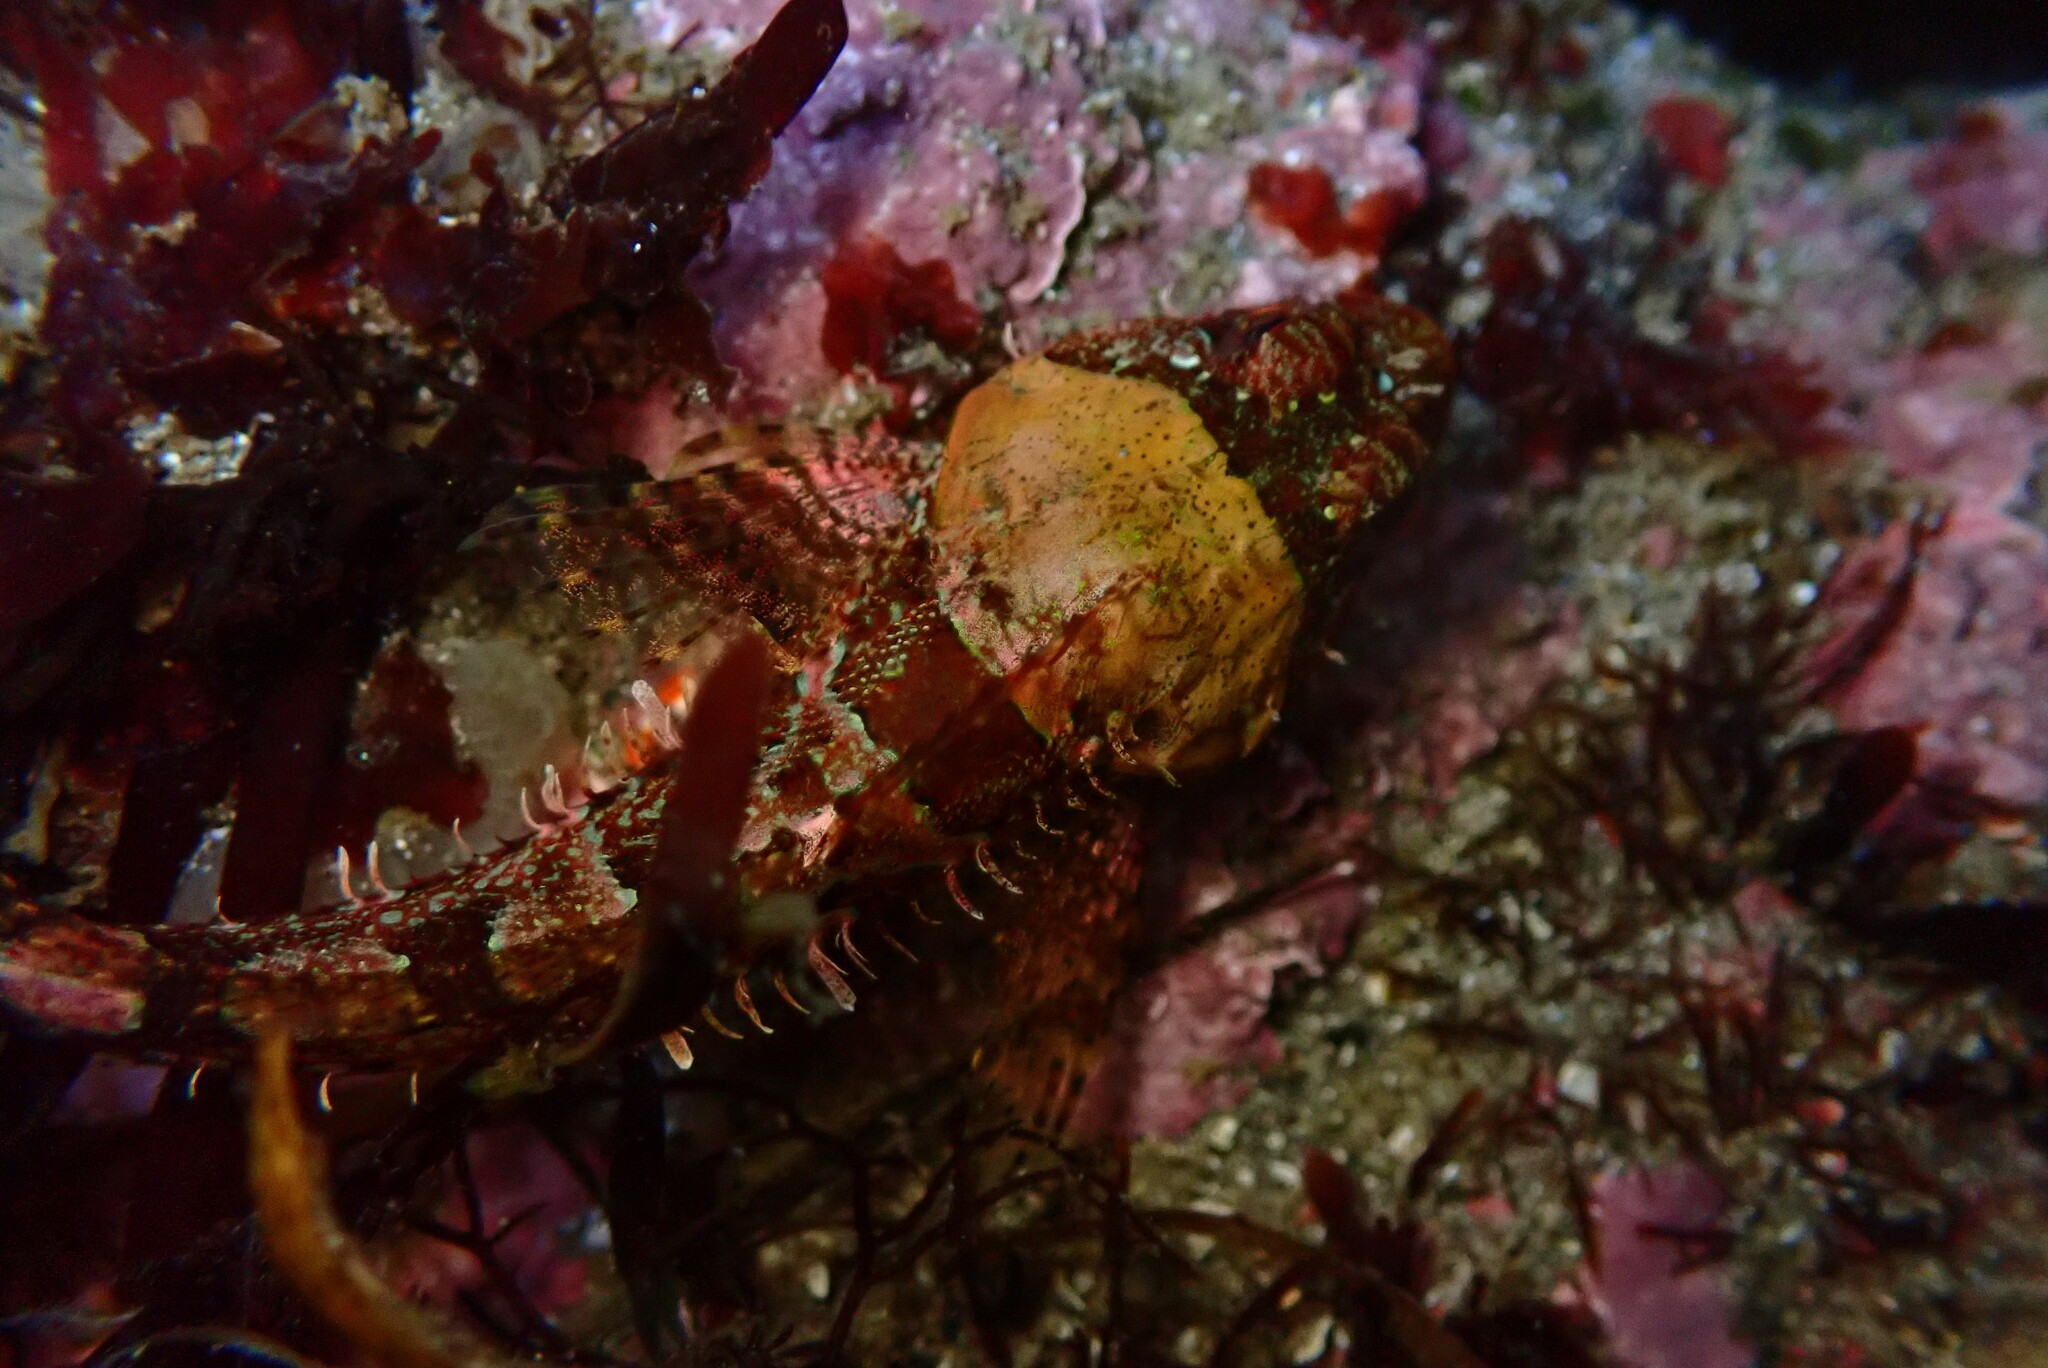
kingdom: Animalia
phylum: Chordata
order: Scorpaeniformes
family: Cottidae
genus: Artedius
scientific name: Artedius lateralis
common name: Smooth-head sculpin
